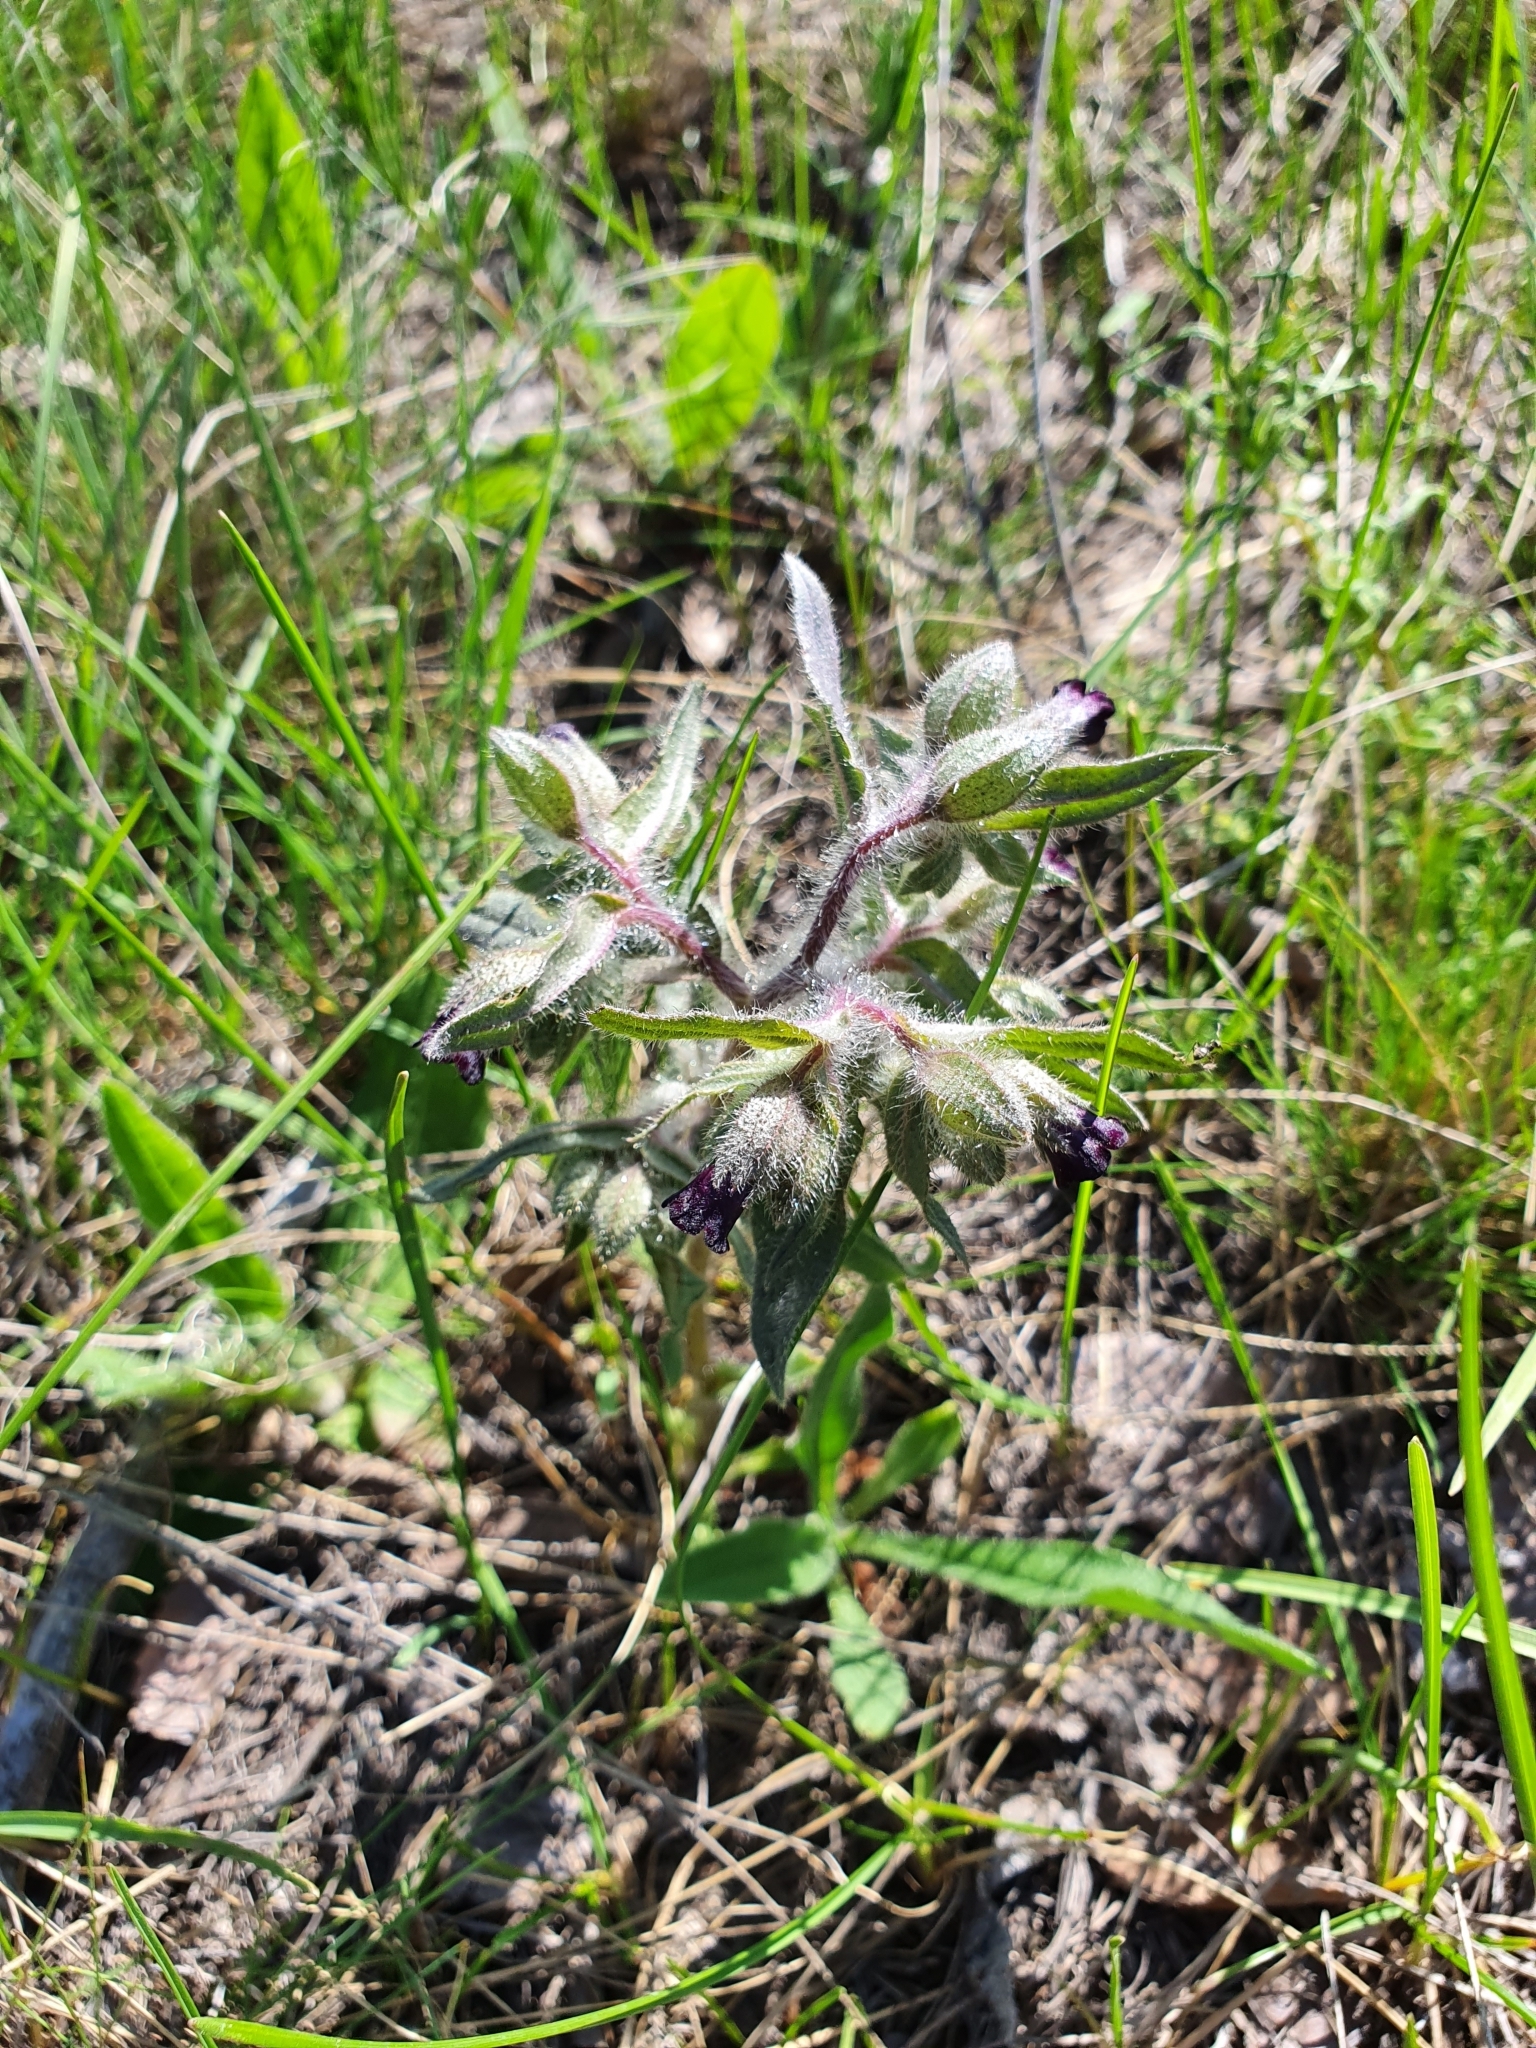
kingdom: Plantae
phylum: Tracheophyta
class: Magnoliopsida
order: Boraginales
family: Boraginaceae
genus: Nonea
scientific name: Nonea pulla
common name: Brown nonea
